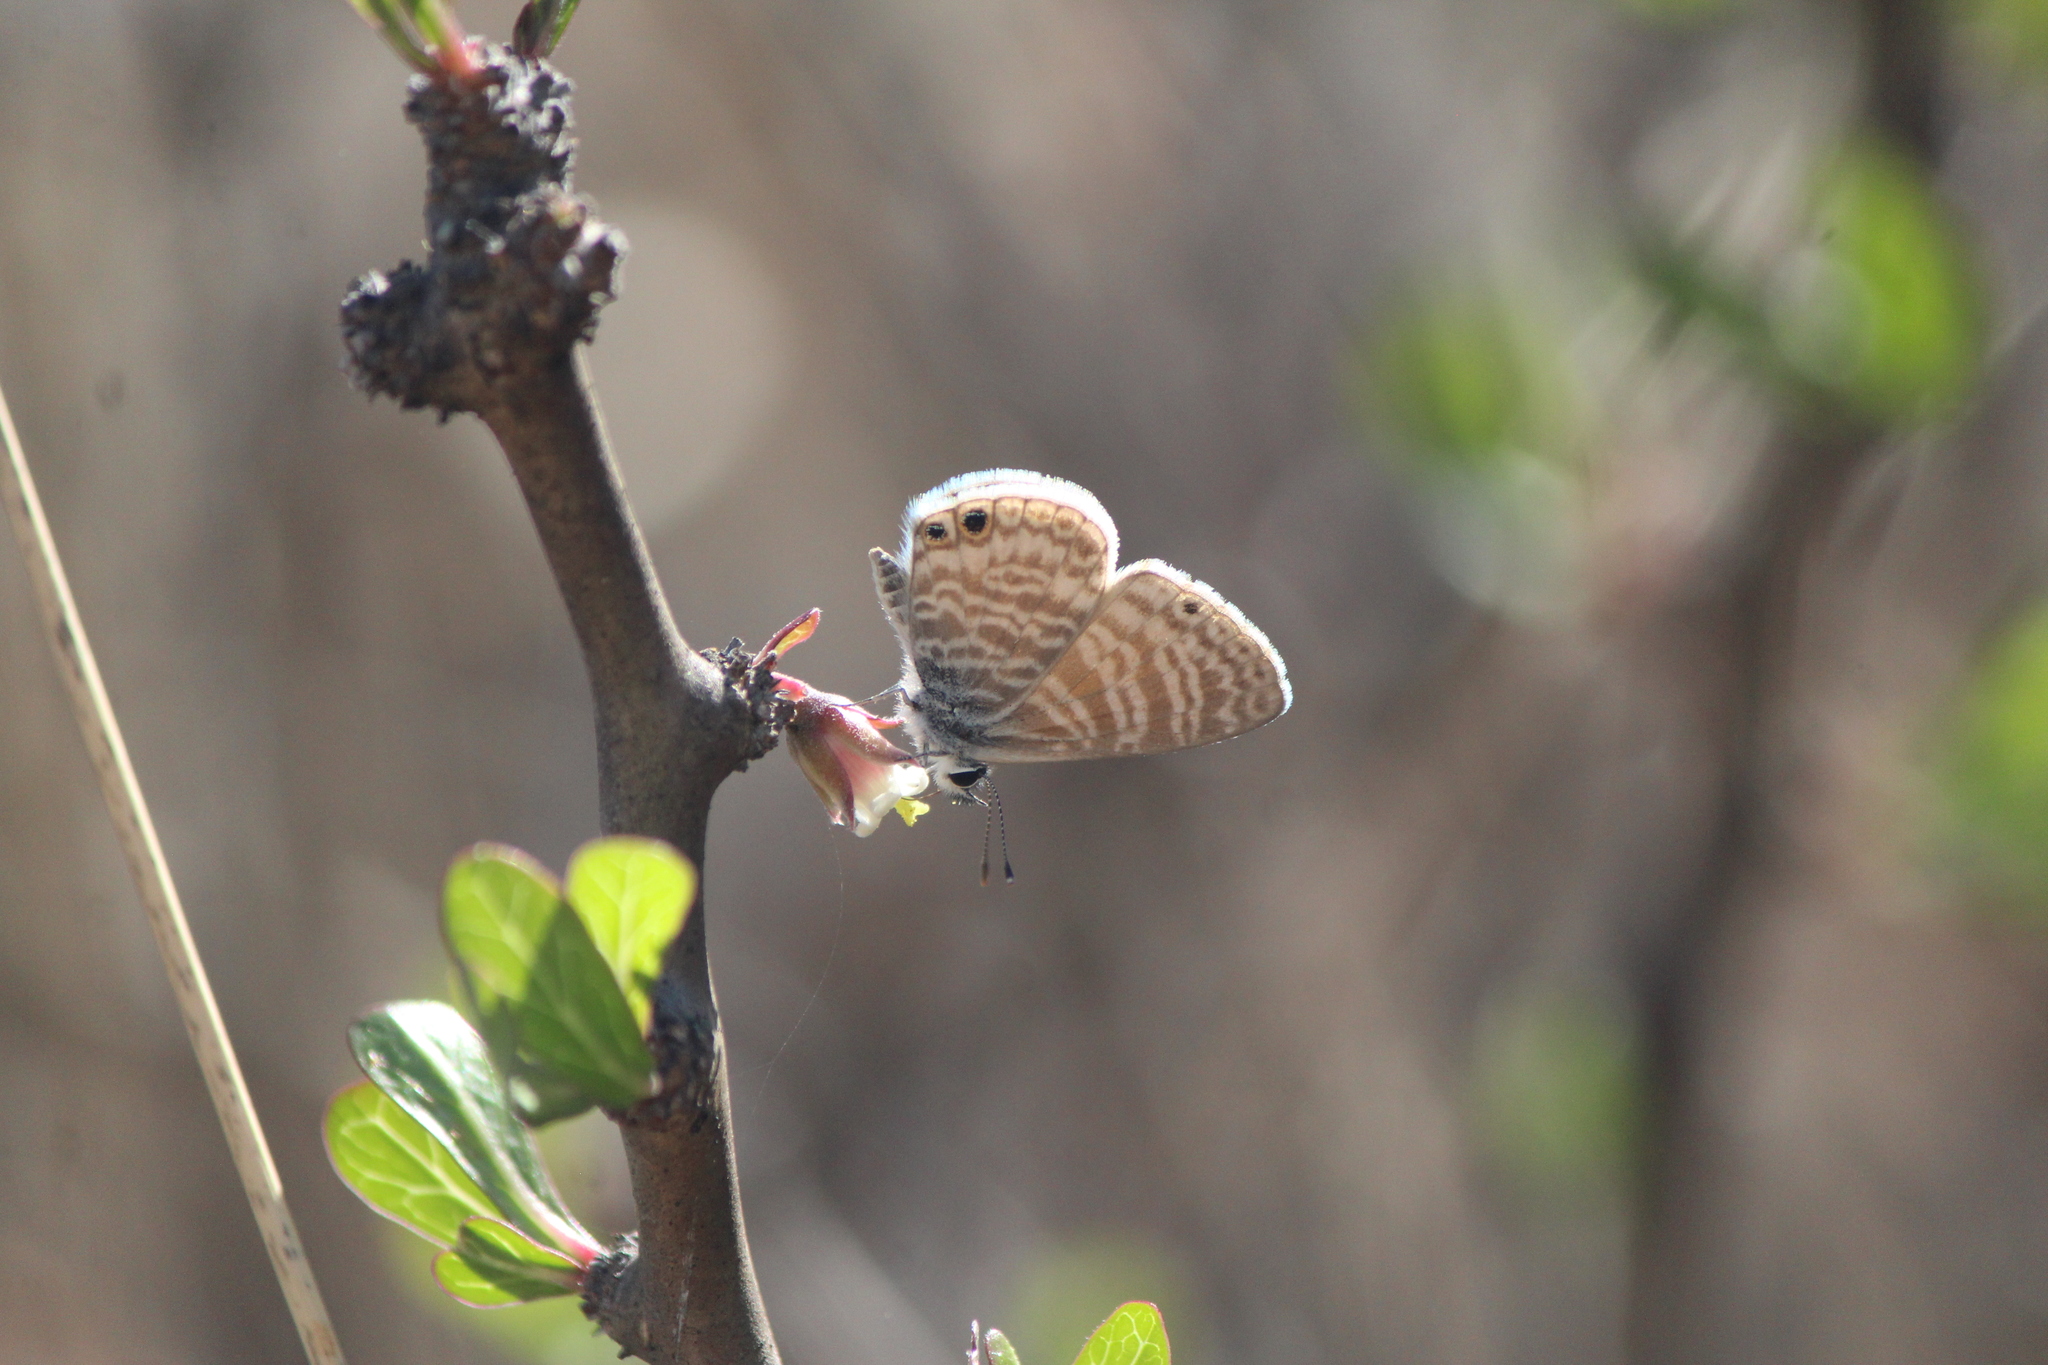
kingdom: Animalia
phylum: Arthropoda
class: Insecta
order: Lepidoptera
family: Lycaenidae
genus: Leptotes
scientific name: Leptotes marina
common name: Marine blue
